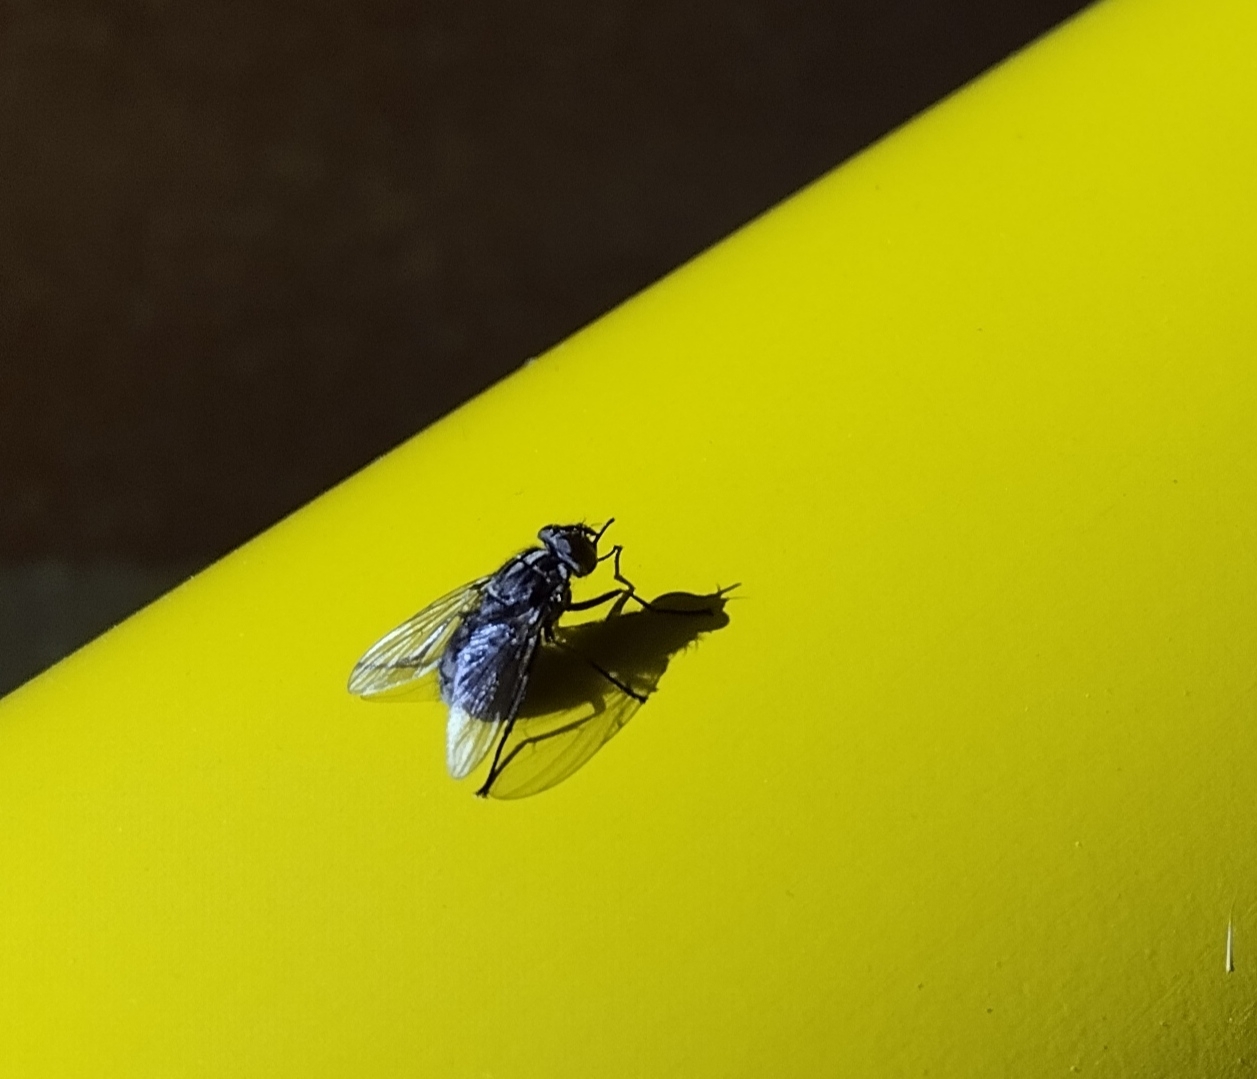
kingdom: Animalia
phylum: Arthropoda
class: Insecta
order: Diptera
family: Muscidae
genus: Stomoxys
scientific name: Stomoxys calcitrans
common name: Stable fly
